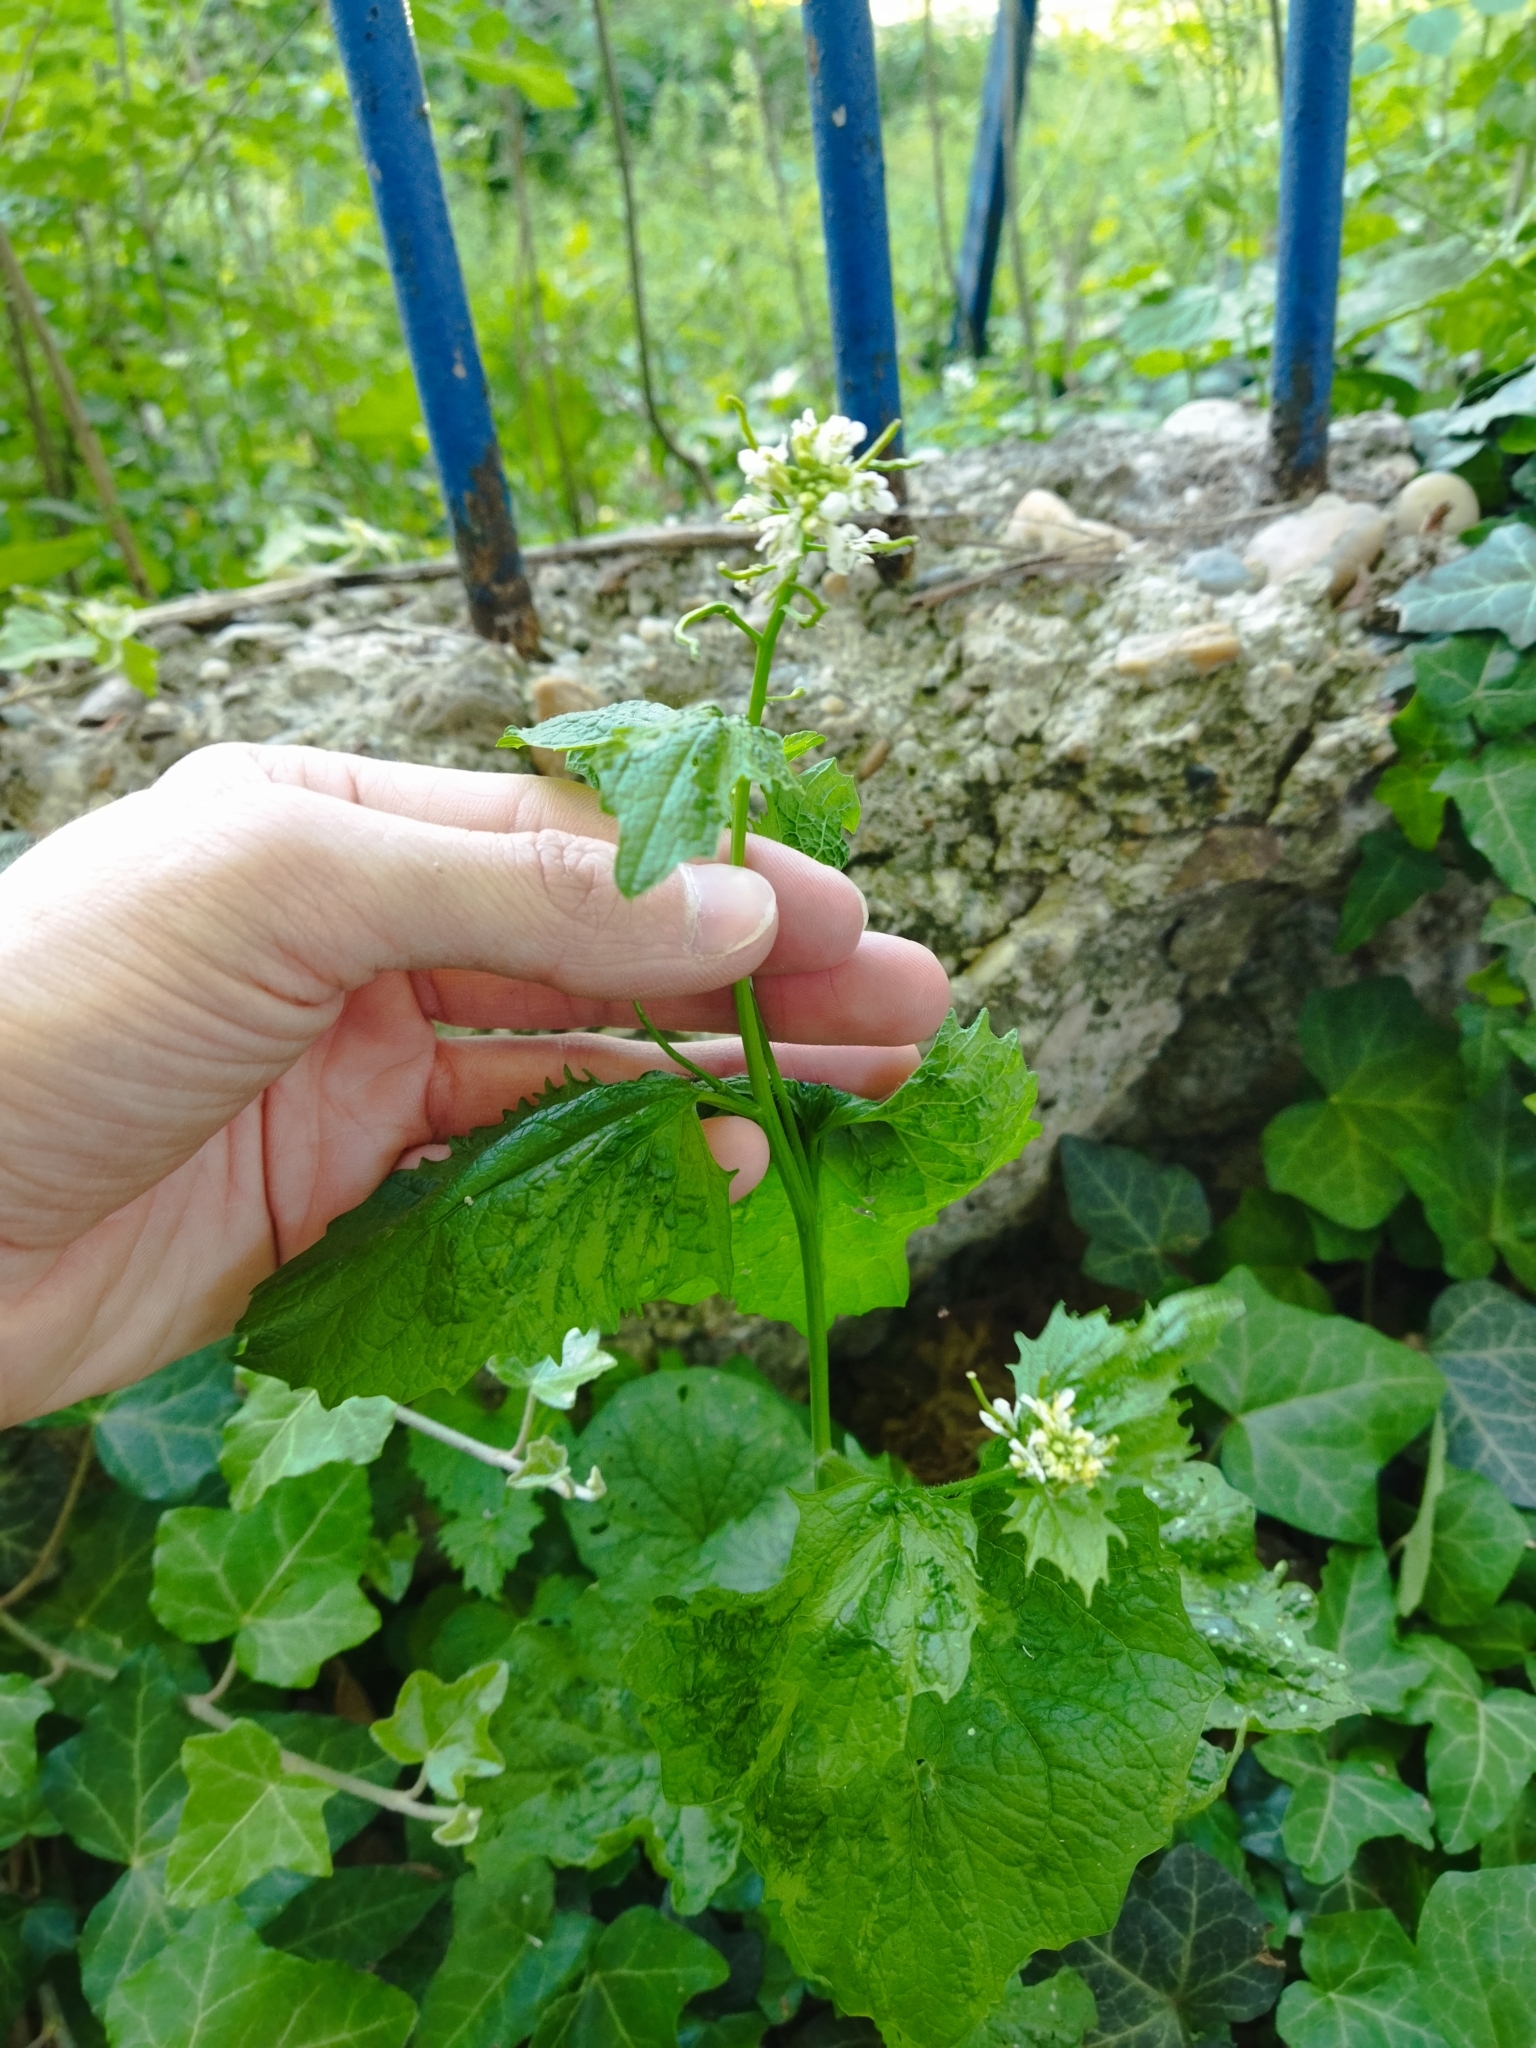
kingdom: Plantae
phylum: Tracheophyta
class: Magnoliopsida
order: Brassicales
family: Brassicaceae
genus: Alliaria
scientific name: Alliaria petiolata
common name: Garlic mustard
